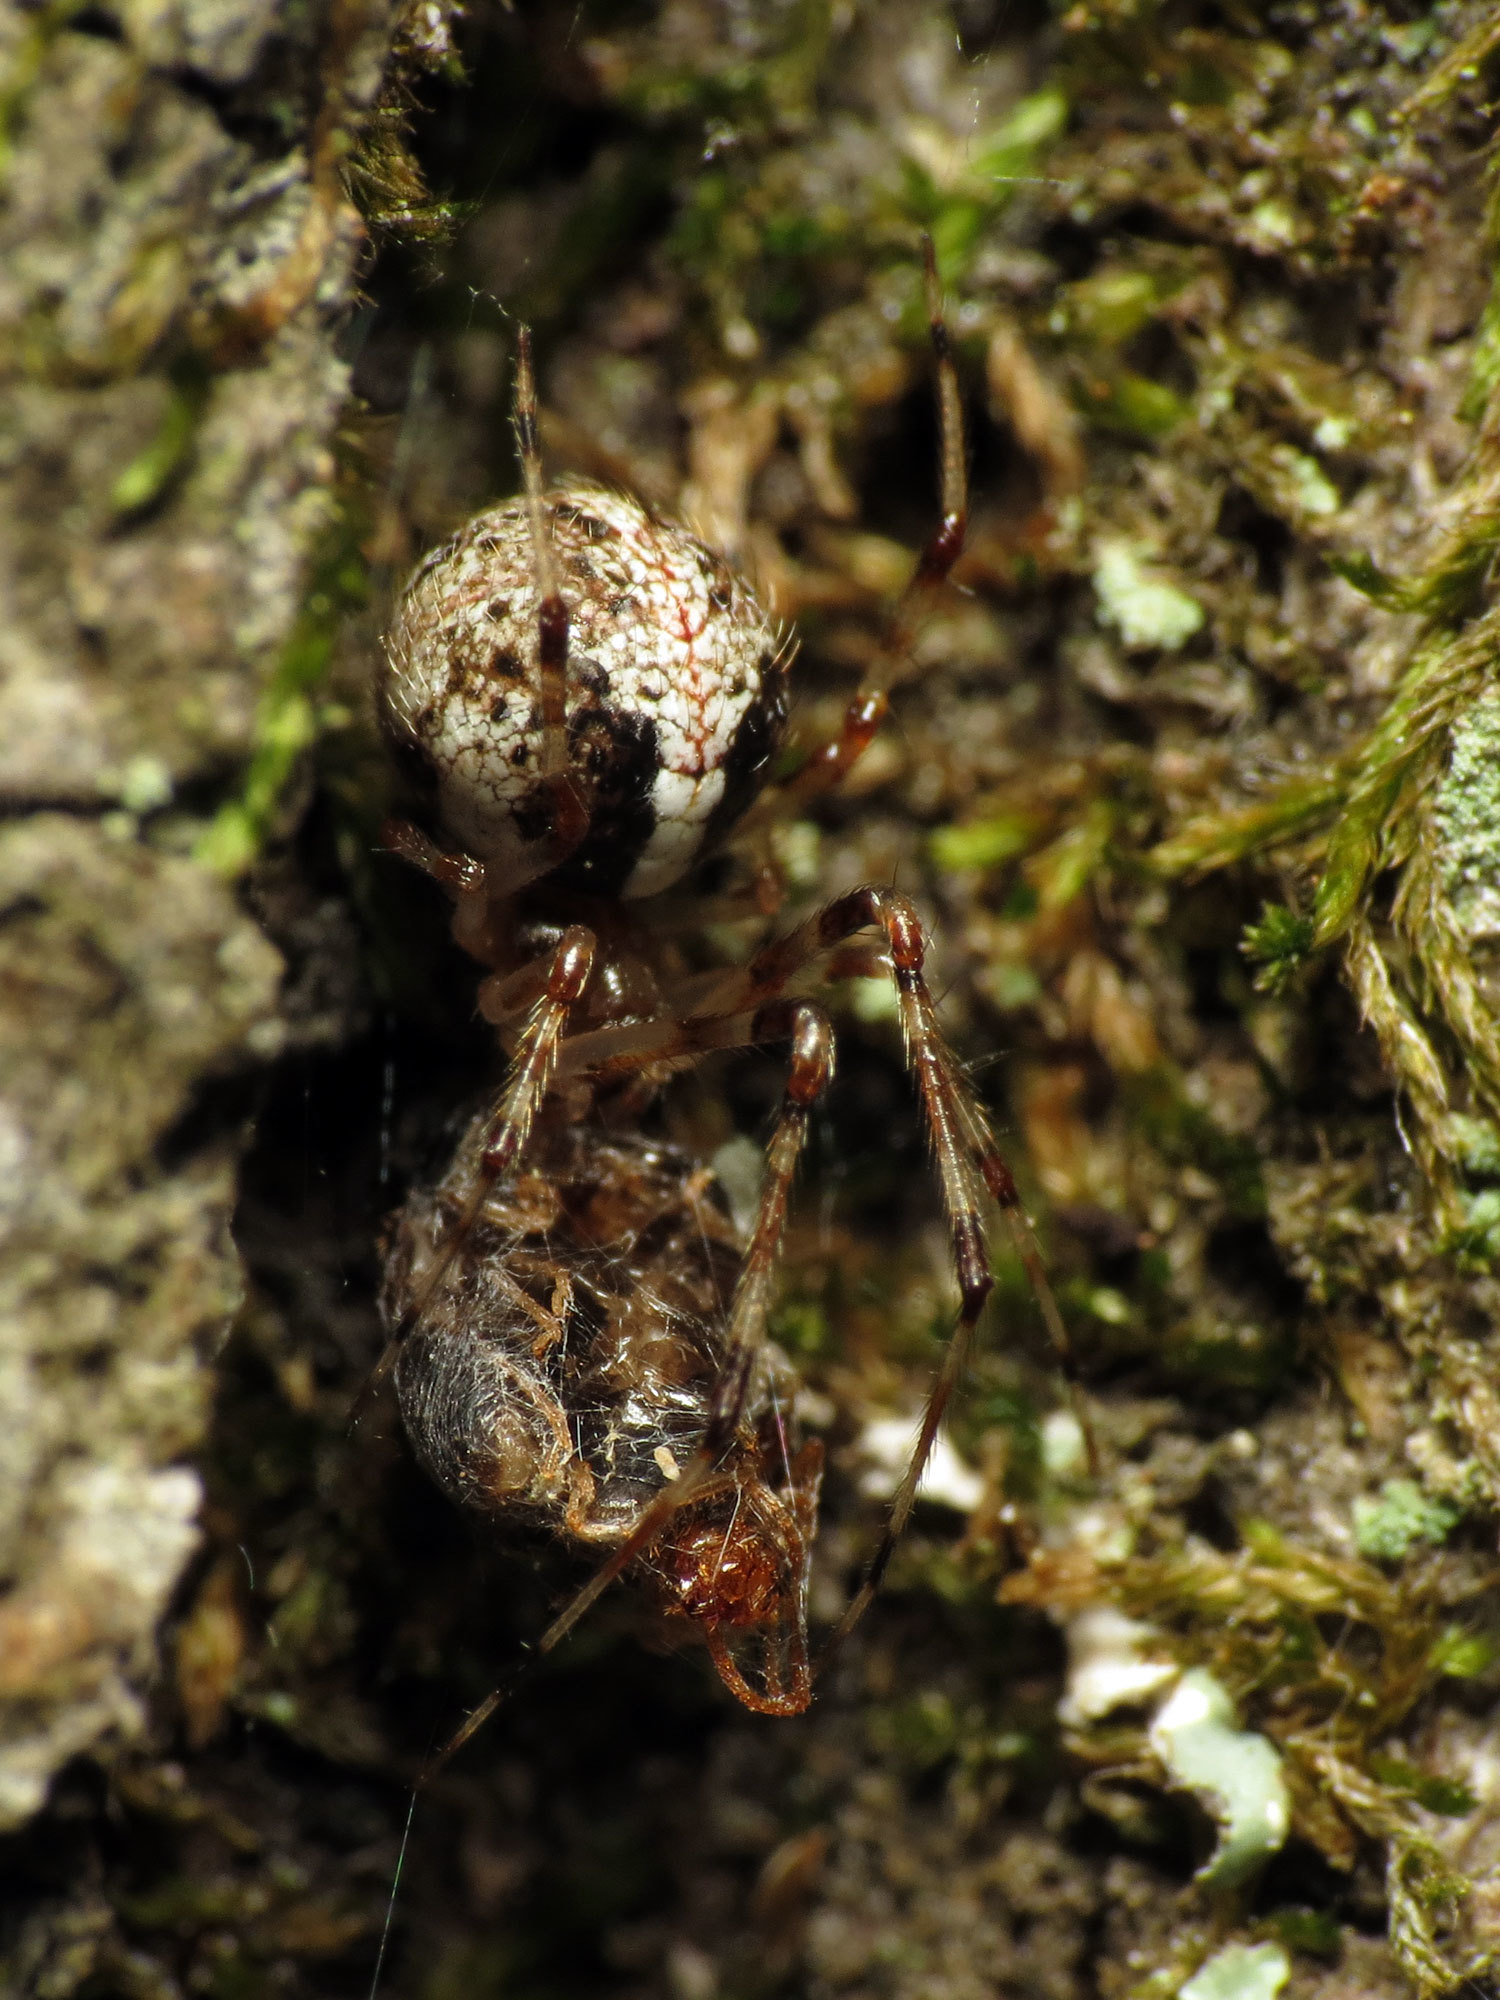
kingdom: Animalia
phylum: Arthropoda
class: Arachnida
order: Araneae
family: Theridiidae
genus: Yunohamella
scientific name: Yunohamella lyrica
